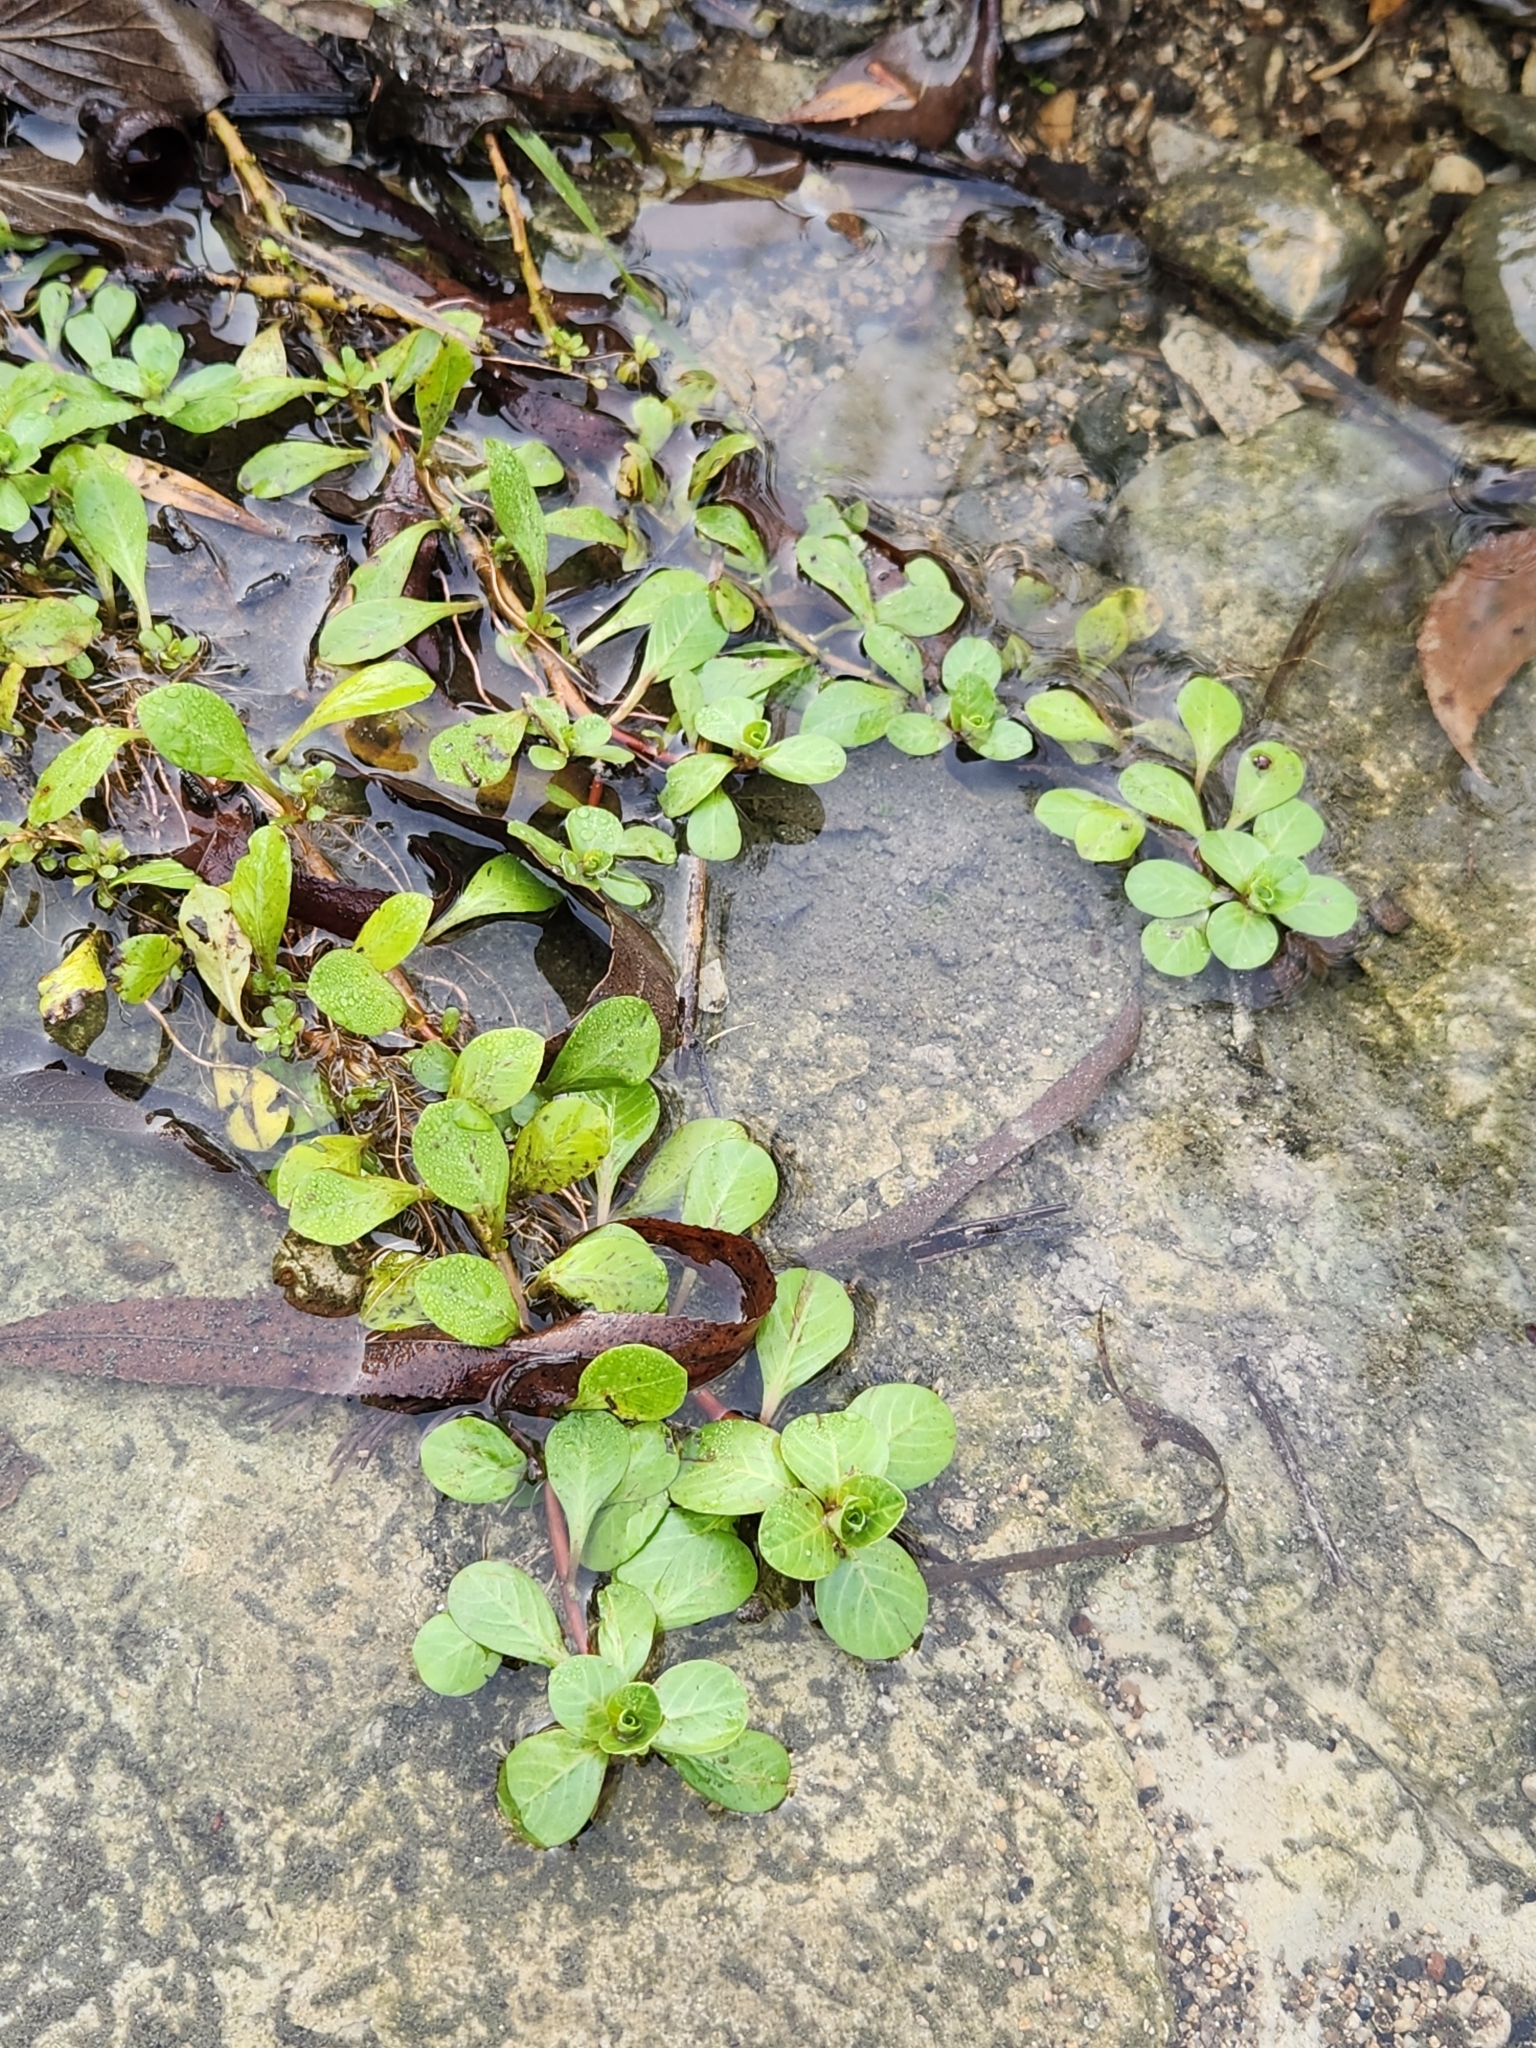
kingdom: Plantae
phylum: Tracheophyta
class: Magnoliopsida
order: Myrtales
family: Onagraceae
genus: Ludwigia
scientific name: Ludwigia peploides
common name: Floating primrose-willow
